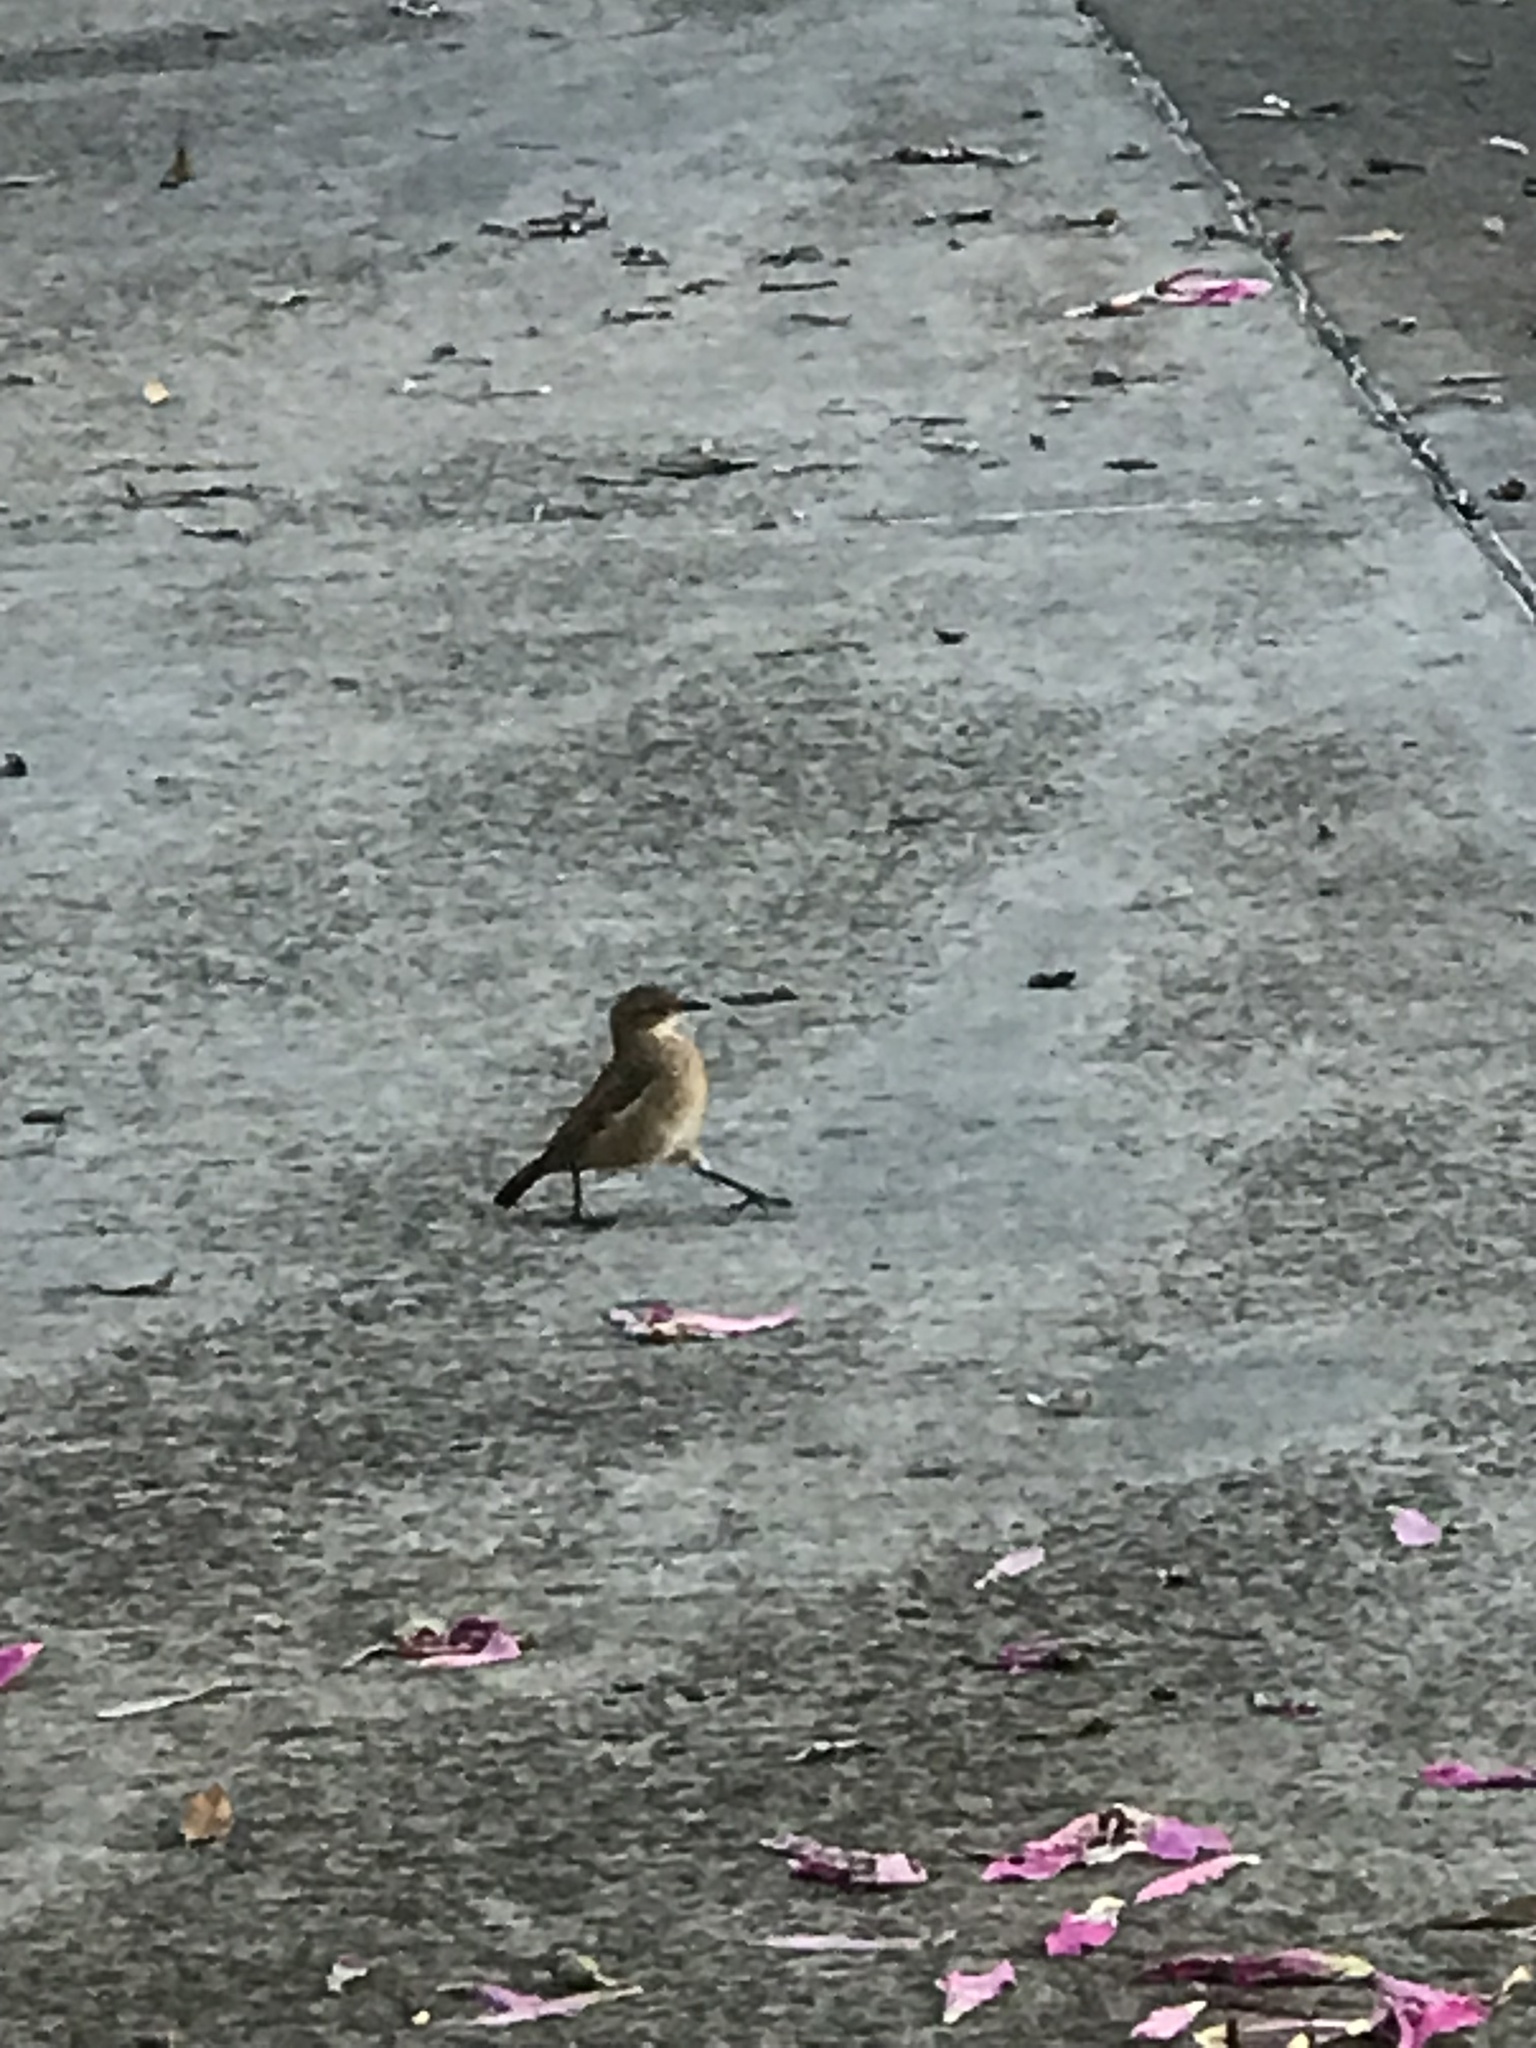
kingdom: Animalia
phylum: Chordata
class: Aves
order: Passeriformes
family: Furnariidae
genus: Furnarius
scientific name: Furnarius rufus
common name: Rufous hornero
